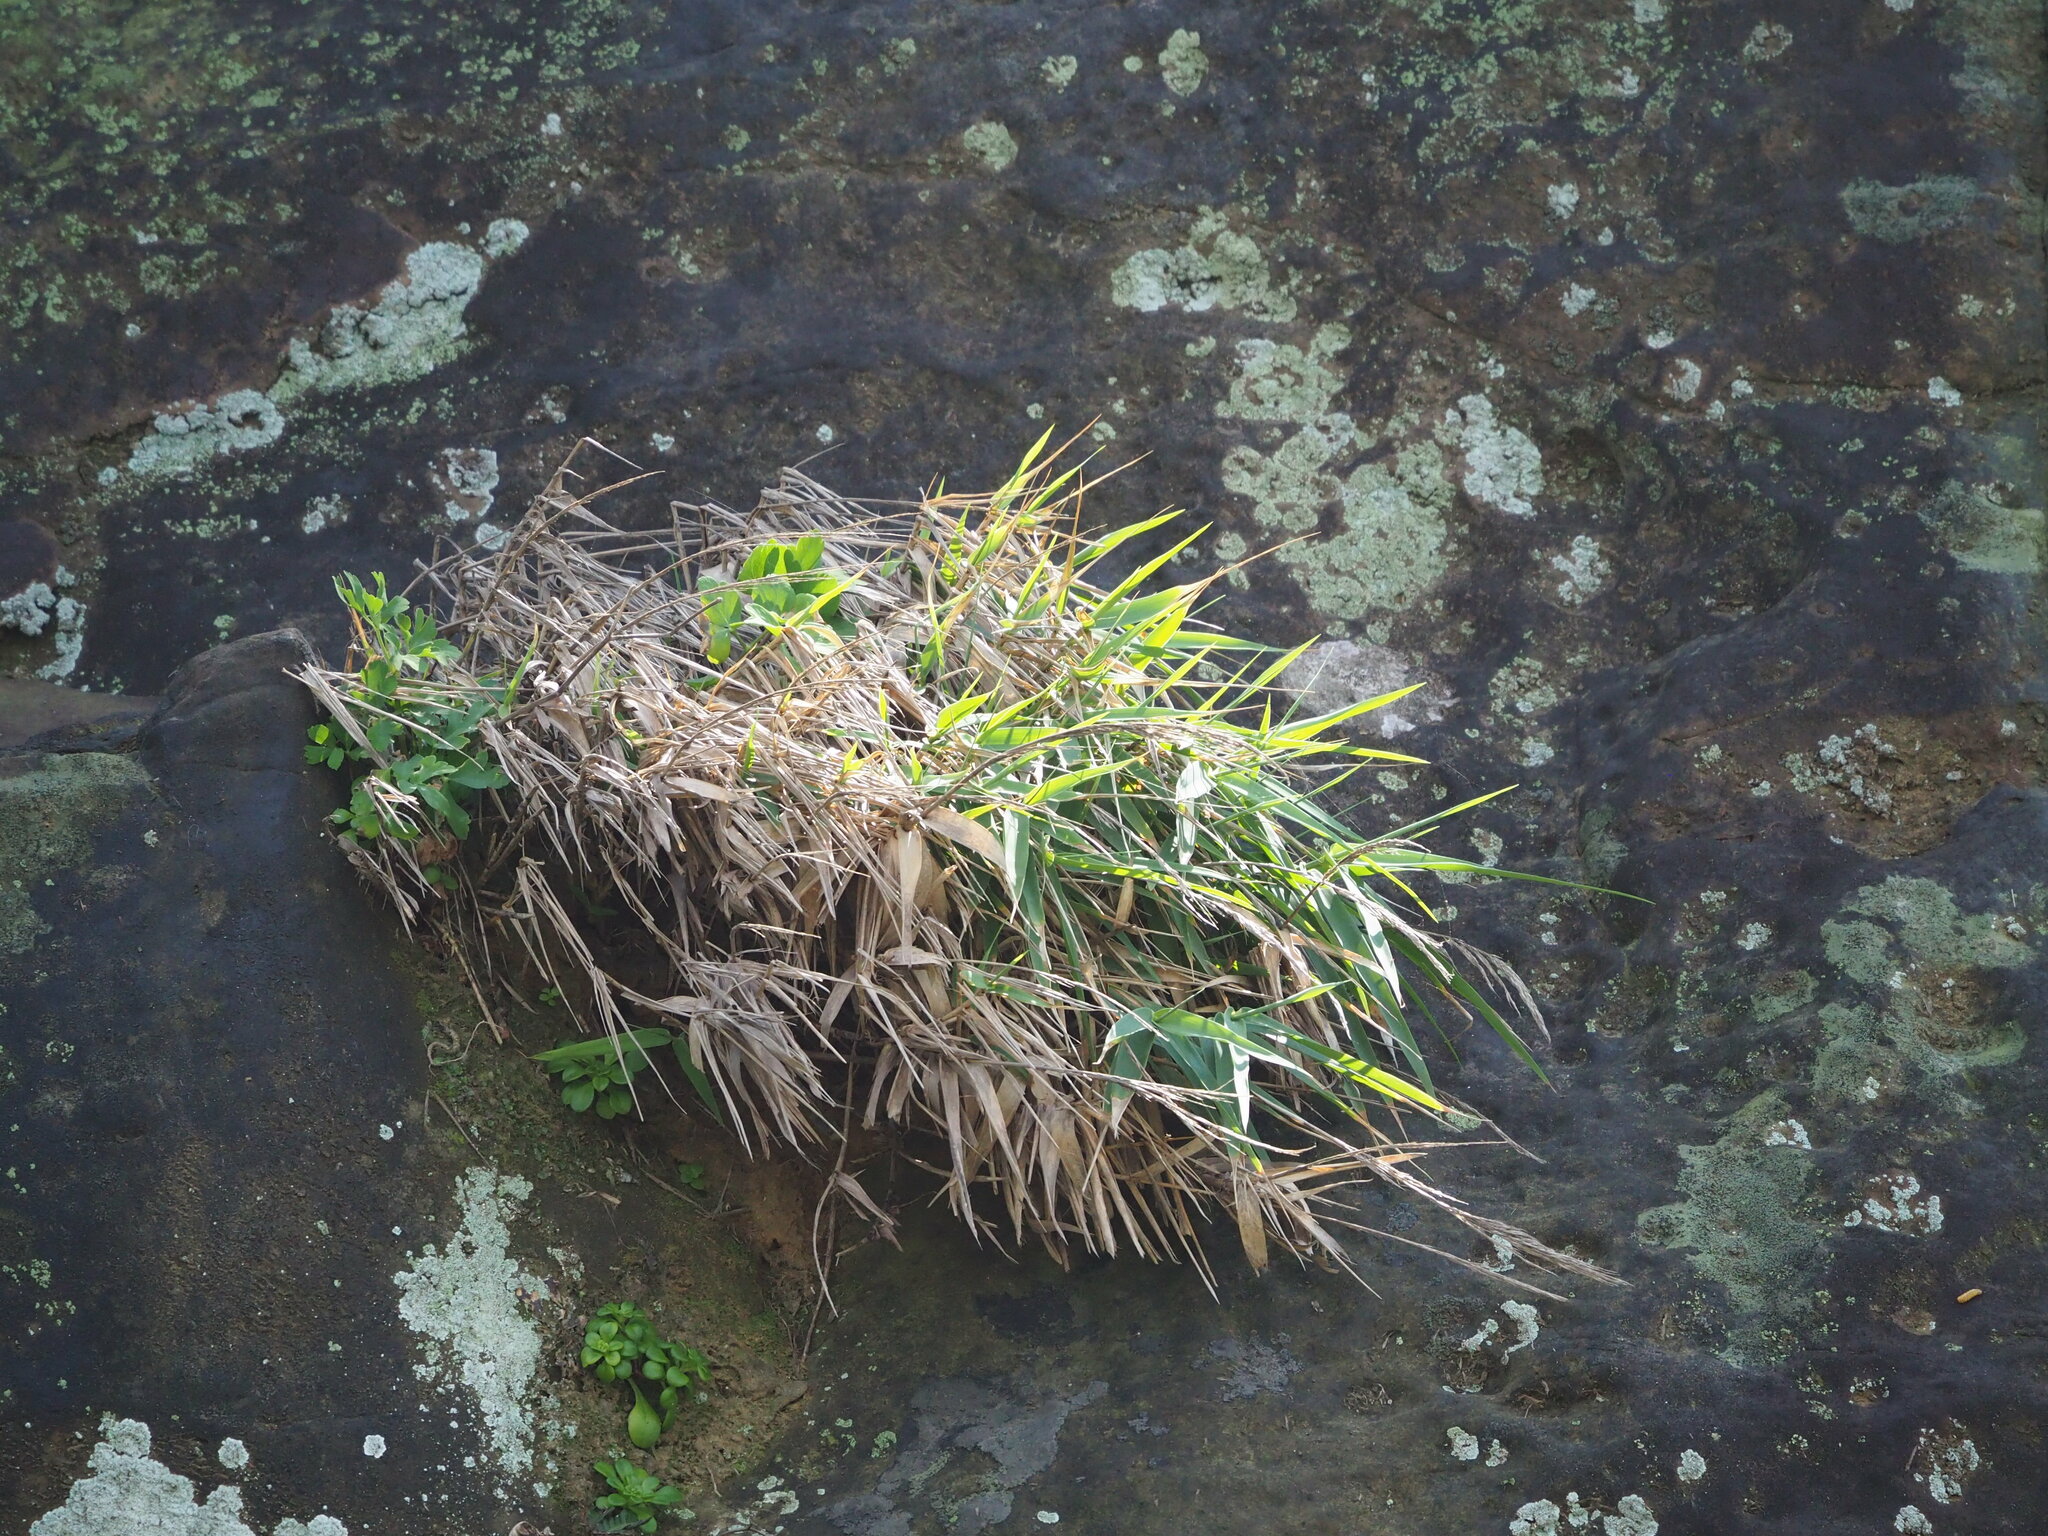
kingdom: Plantae
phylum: Tracheophyta
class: Liliopsida
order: Poales
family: Poaceae
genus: Arundo
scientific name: Arundo formosana
